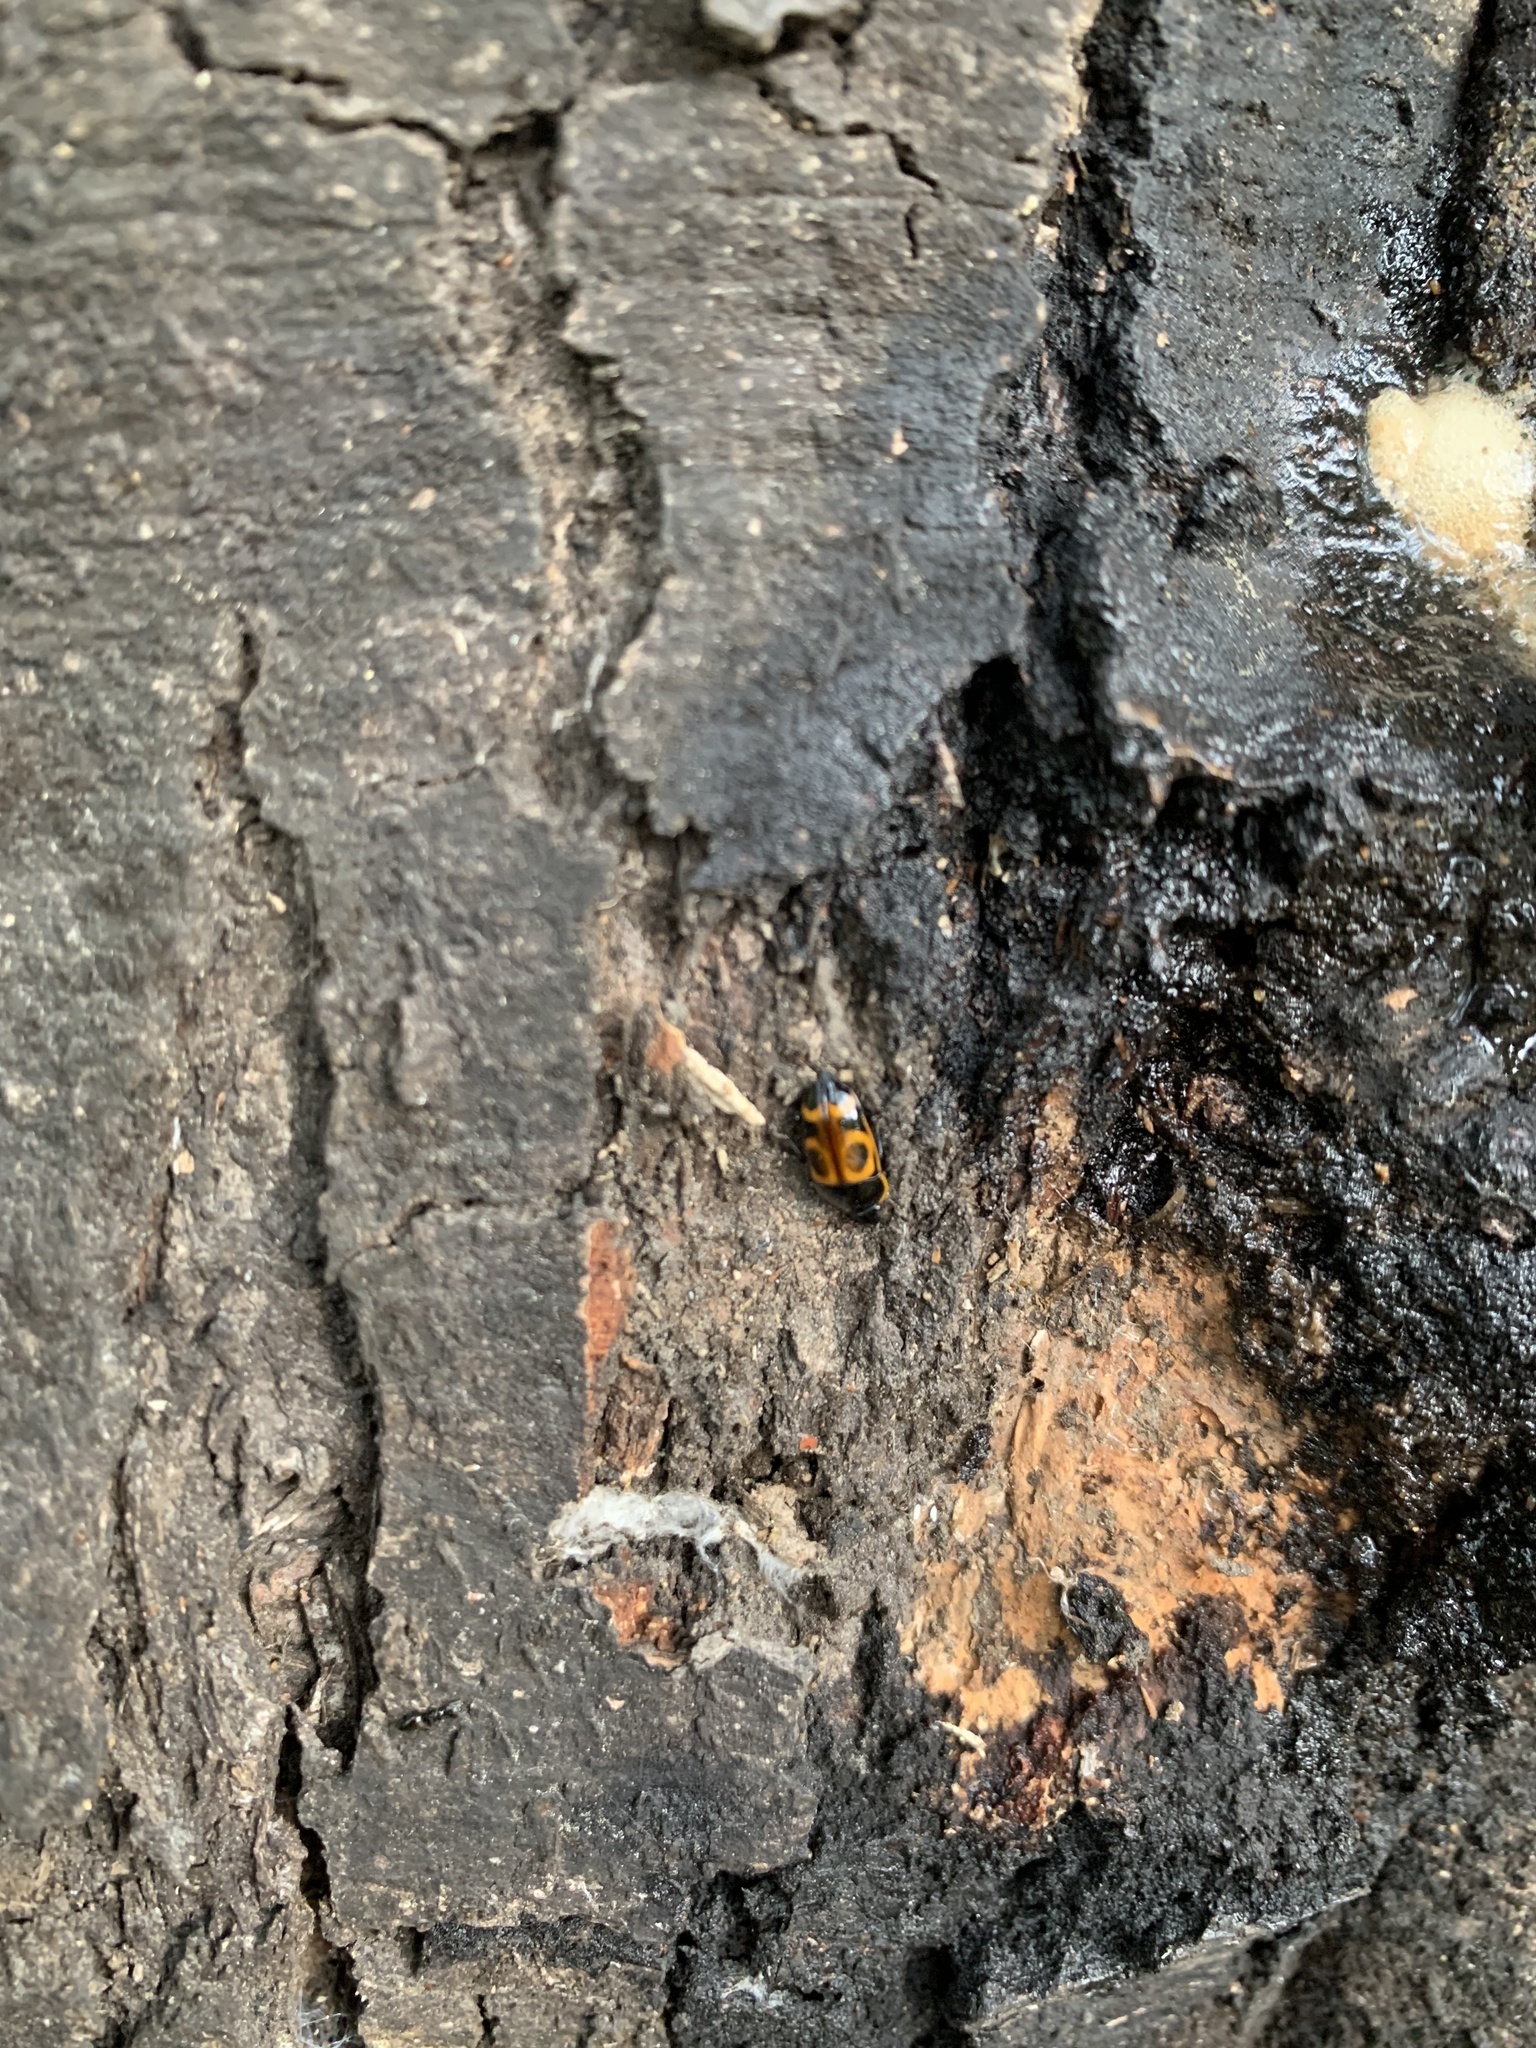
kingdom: Animalia
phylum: Arthropoda
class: Insecta
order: Coleoptera
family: Nitidulidae
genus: Lioschema
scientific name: Lioschema
